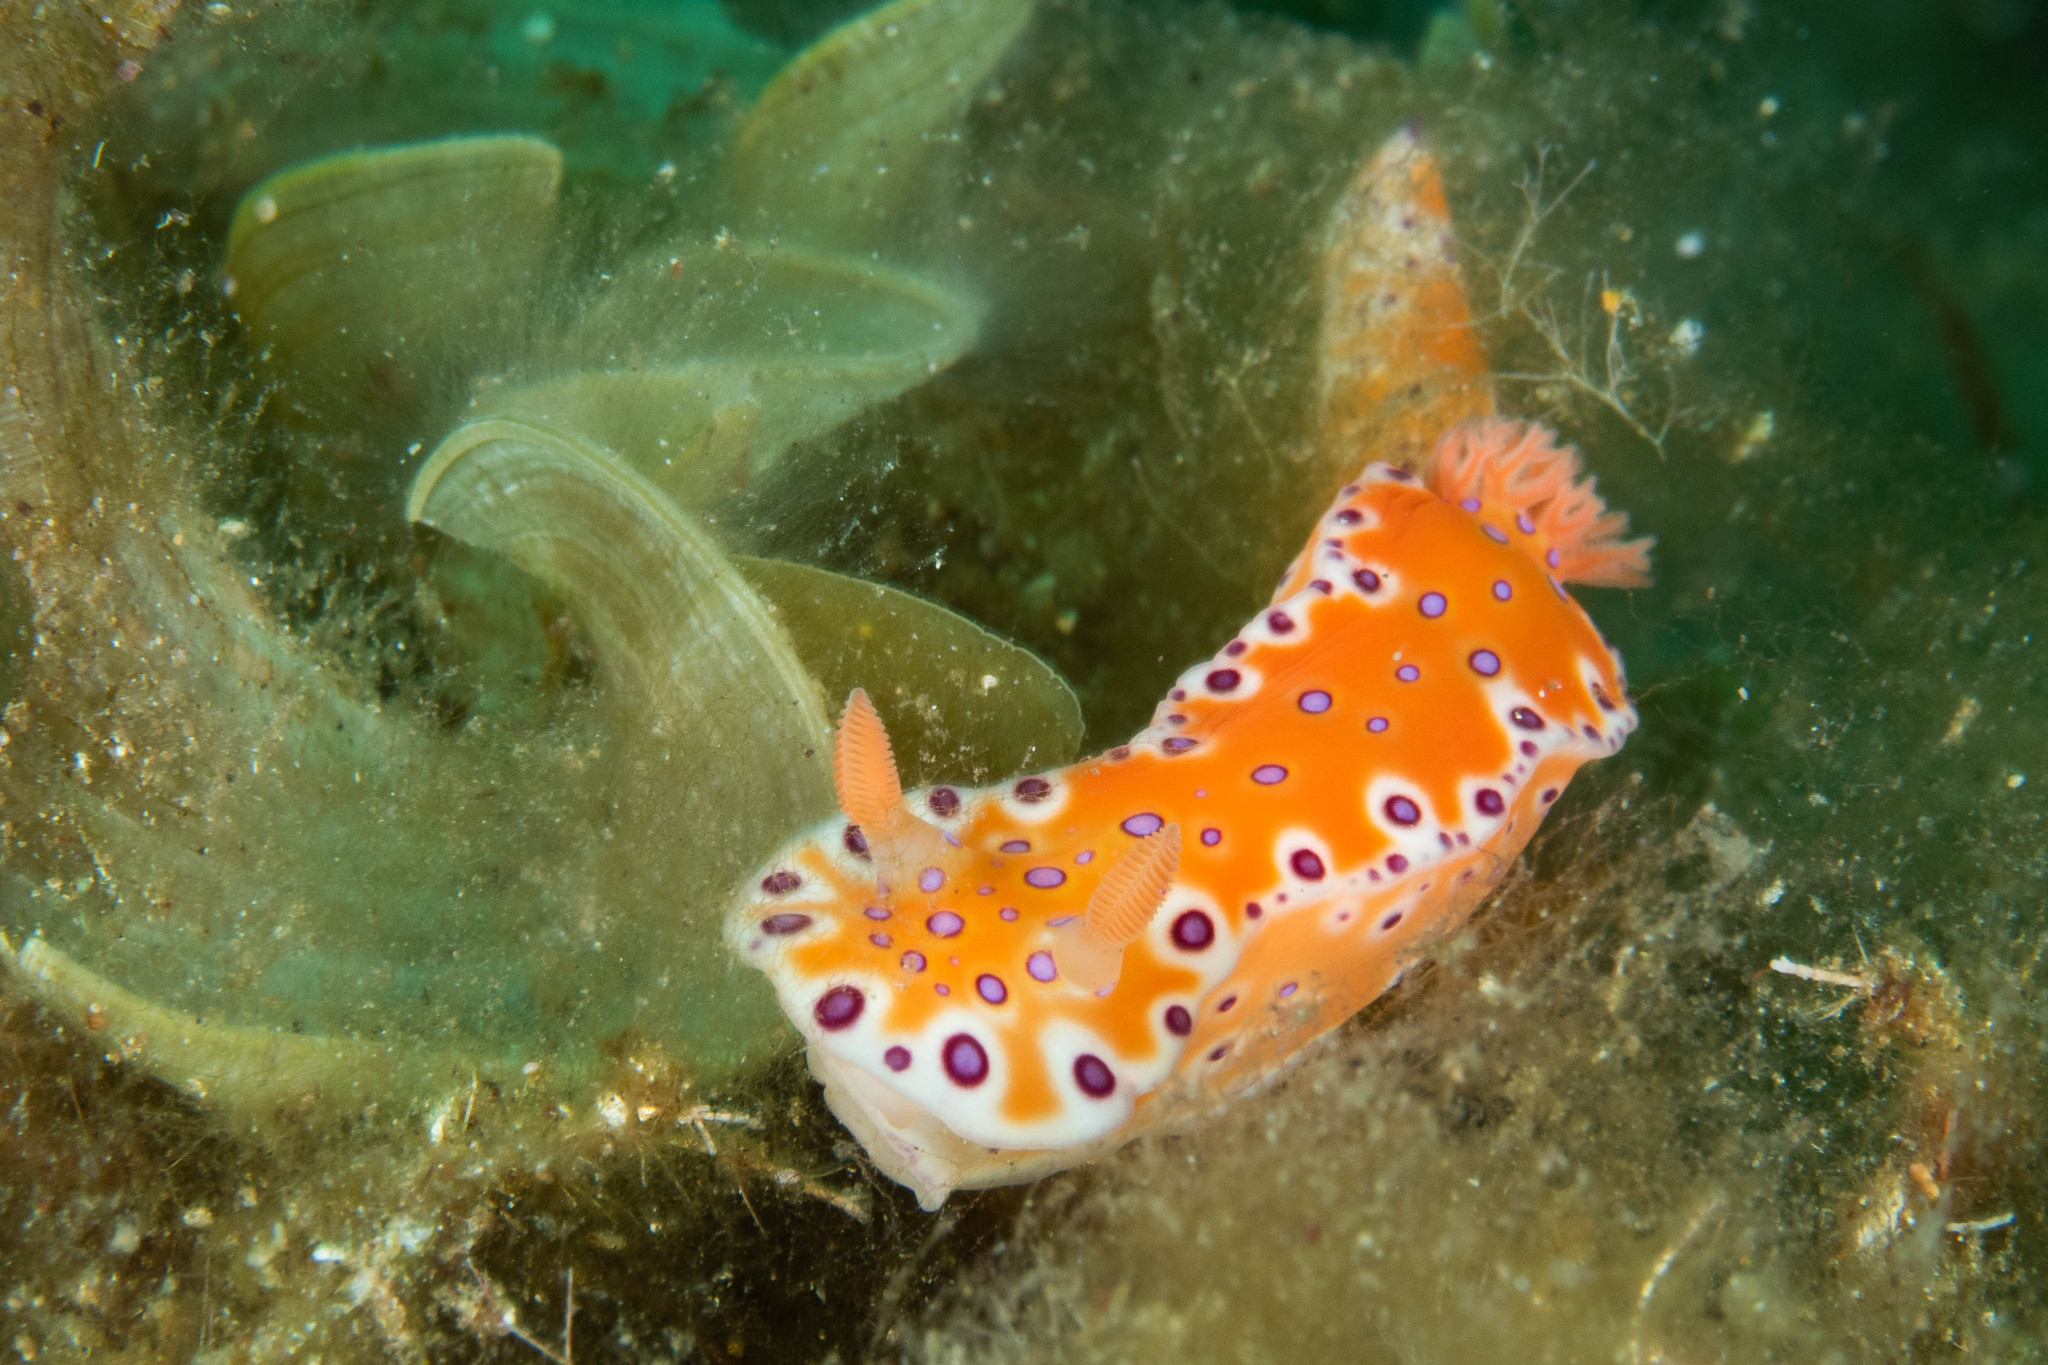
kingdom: Animalia
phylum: Mollusca
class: Gastropoda
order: Nudibranchia
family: Chromodorididae
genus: Ceratosoma
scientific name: Ceratosoma brevicaudatum
